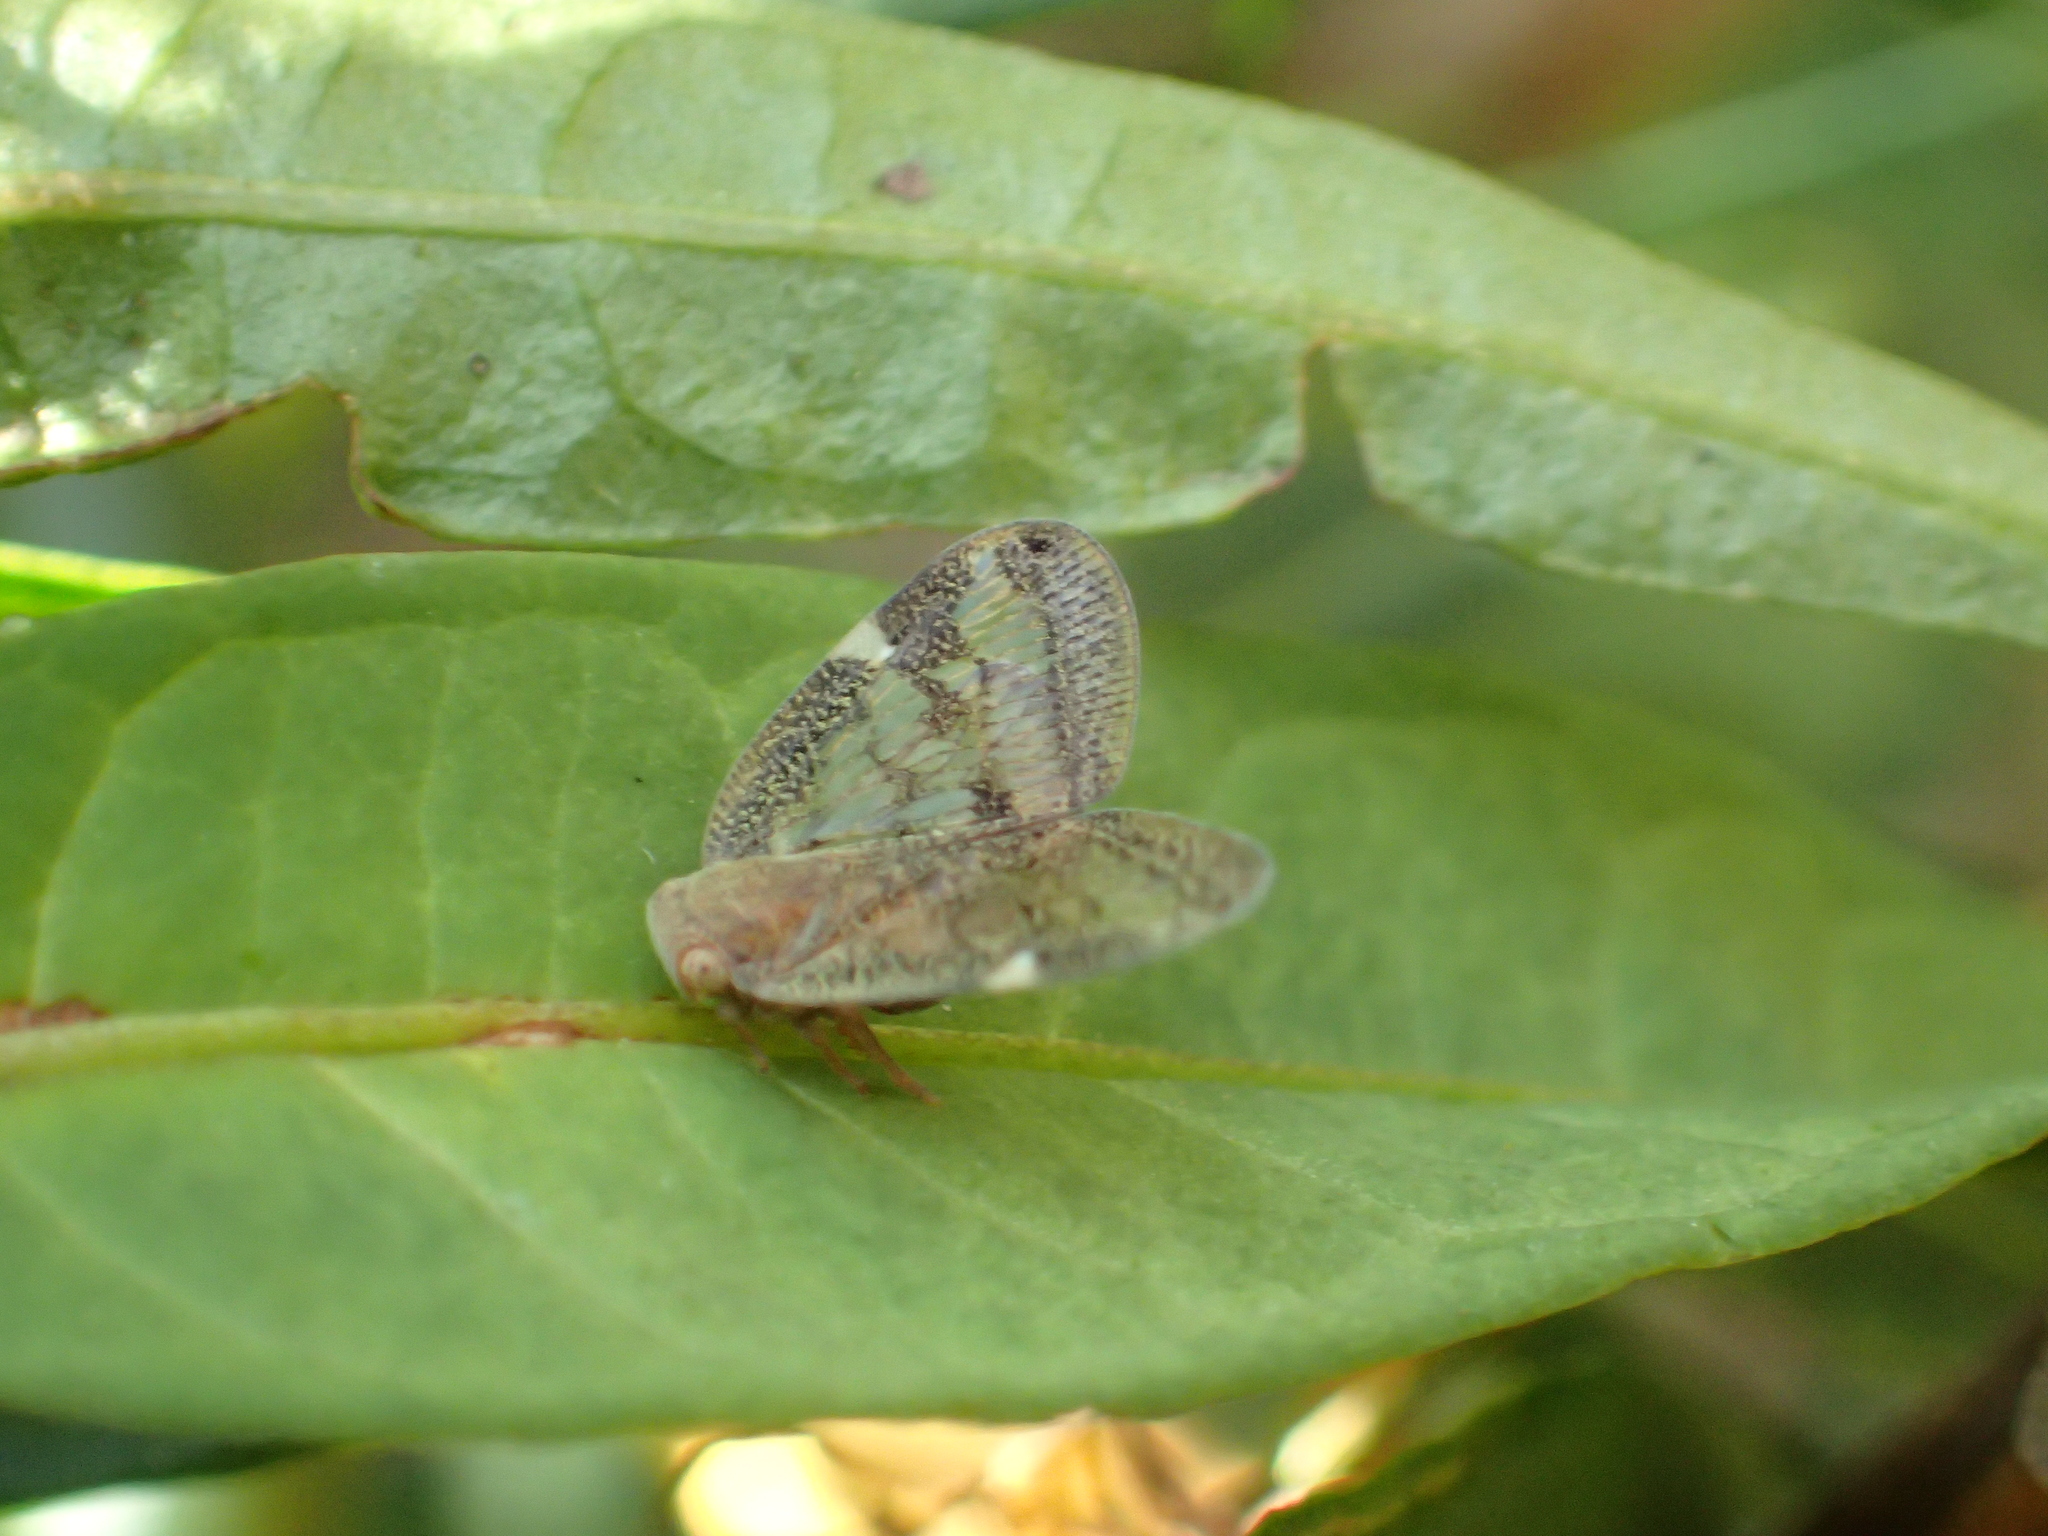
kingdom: Animalia
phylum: Arthropoda
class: Insecta
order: Hemiptera
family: Ricaniidae
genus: Scolypopa
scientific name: Scolypopa australis
